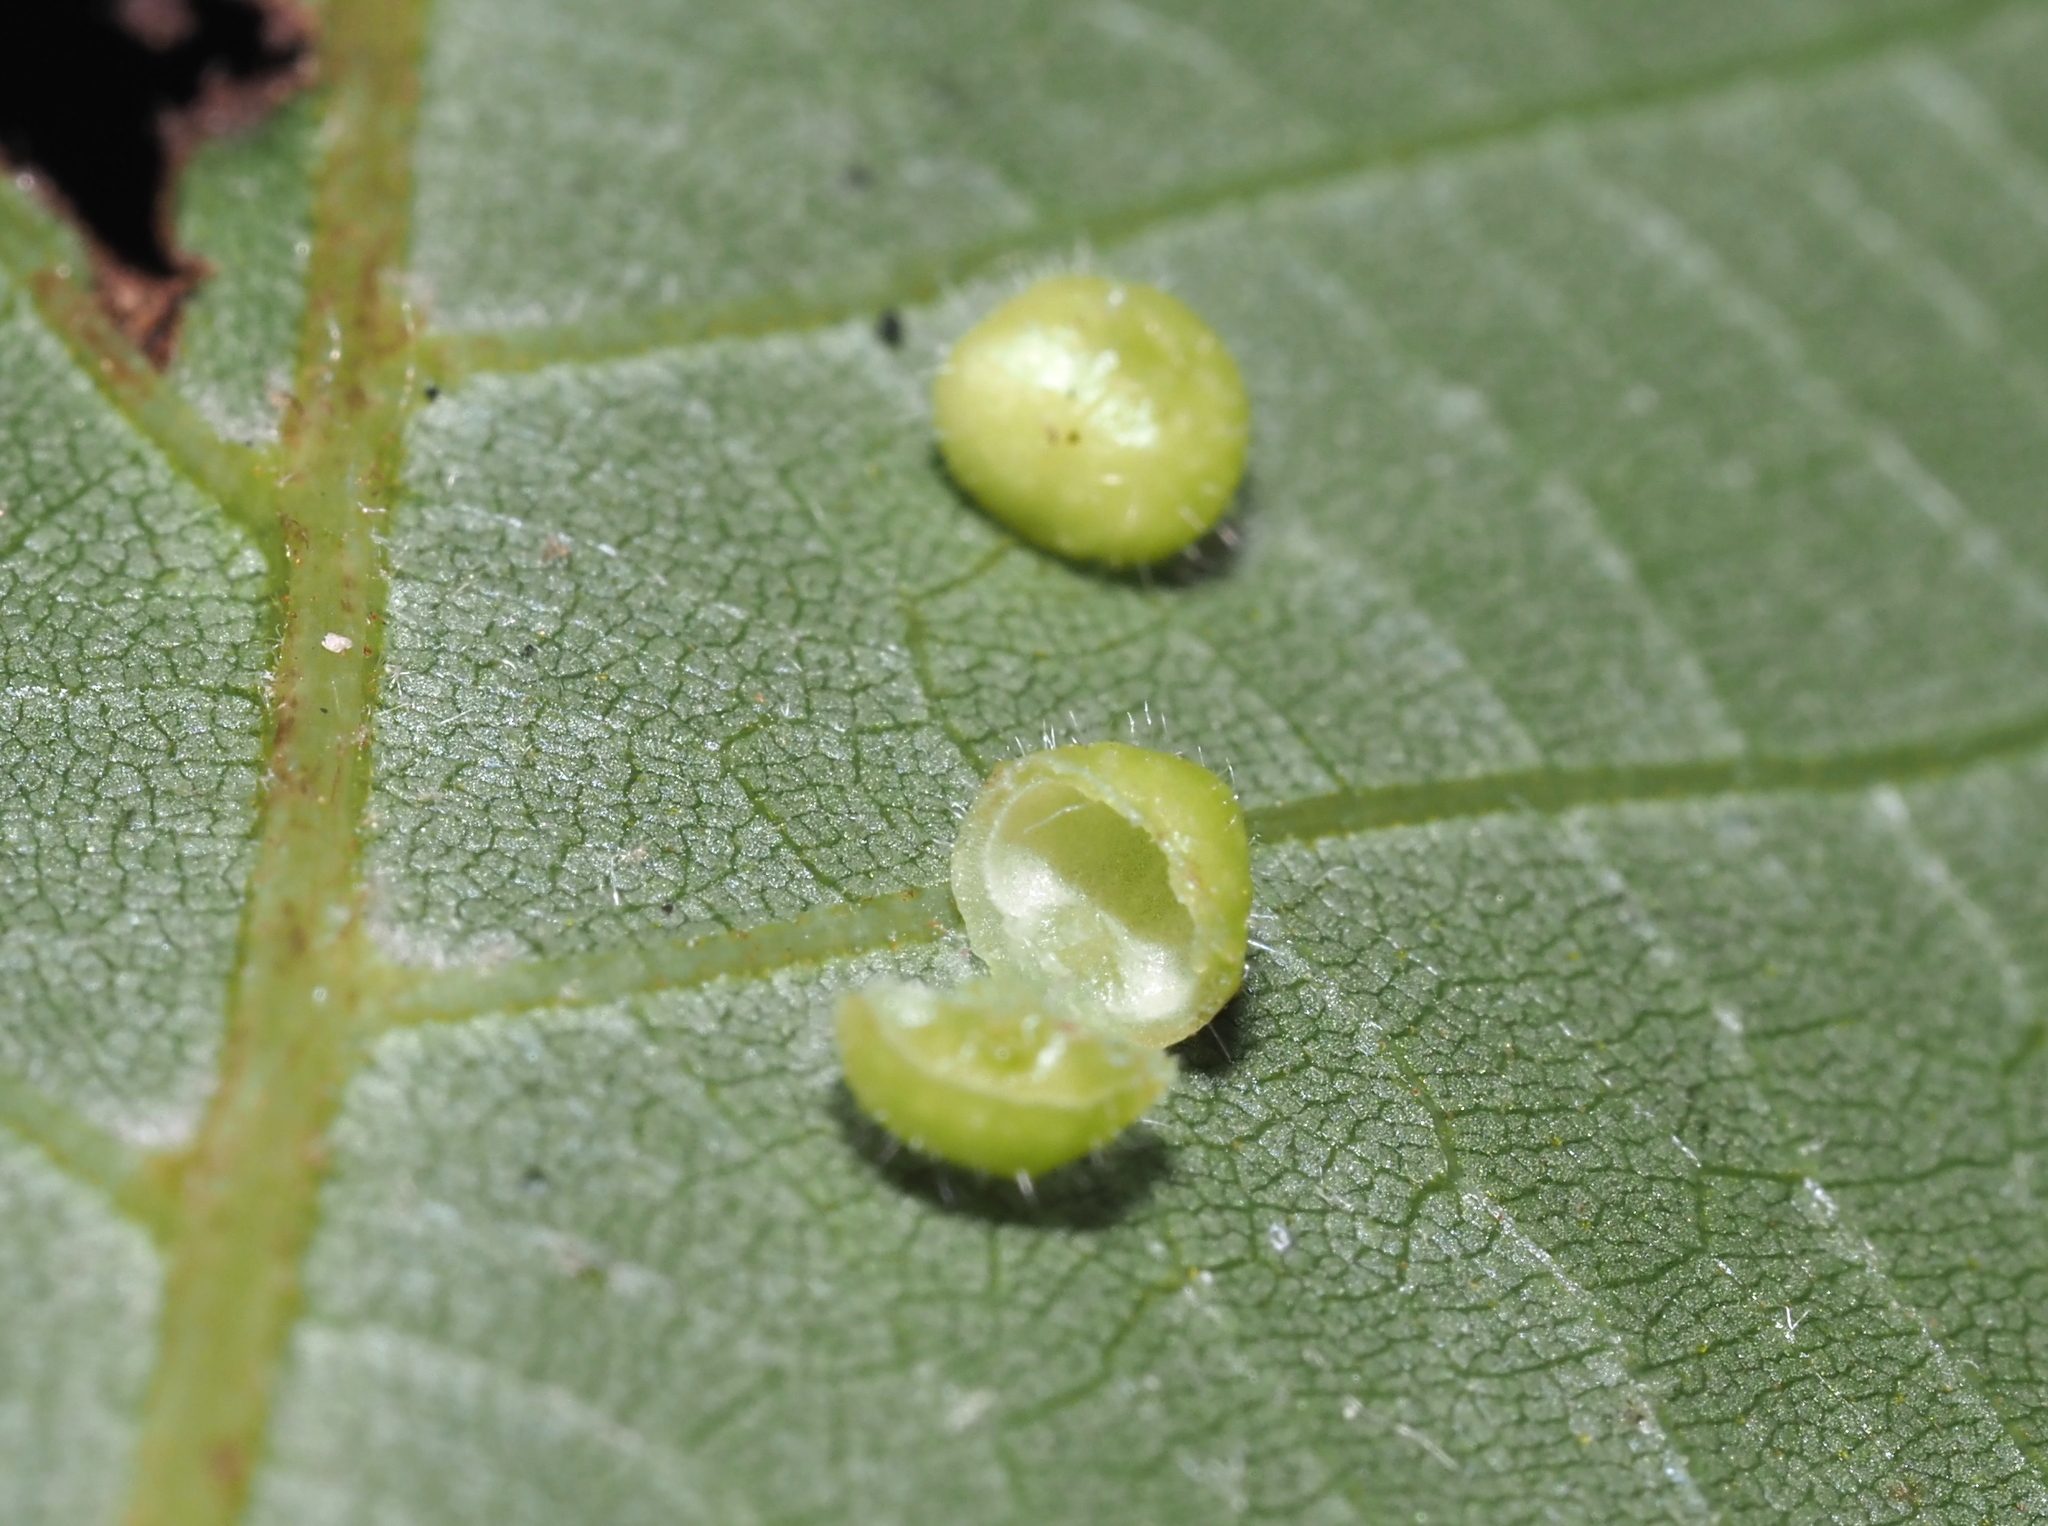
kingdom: Animalia
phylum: Arthropoda
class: Insecta
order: Diptera
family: Cecidomyiidae
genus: Caryomyia
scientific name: Caryomyia thompsoni
